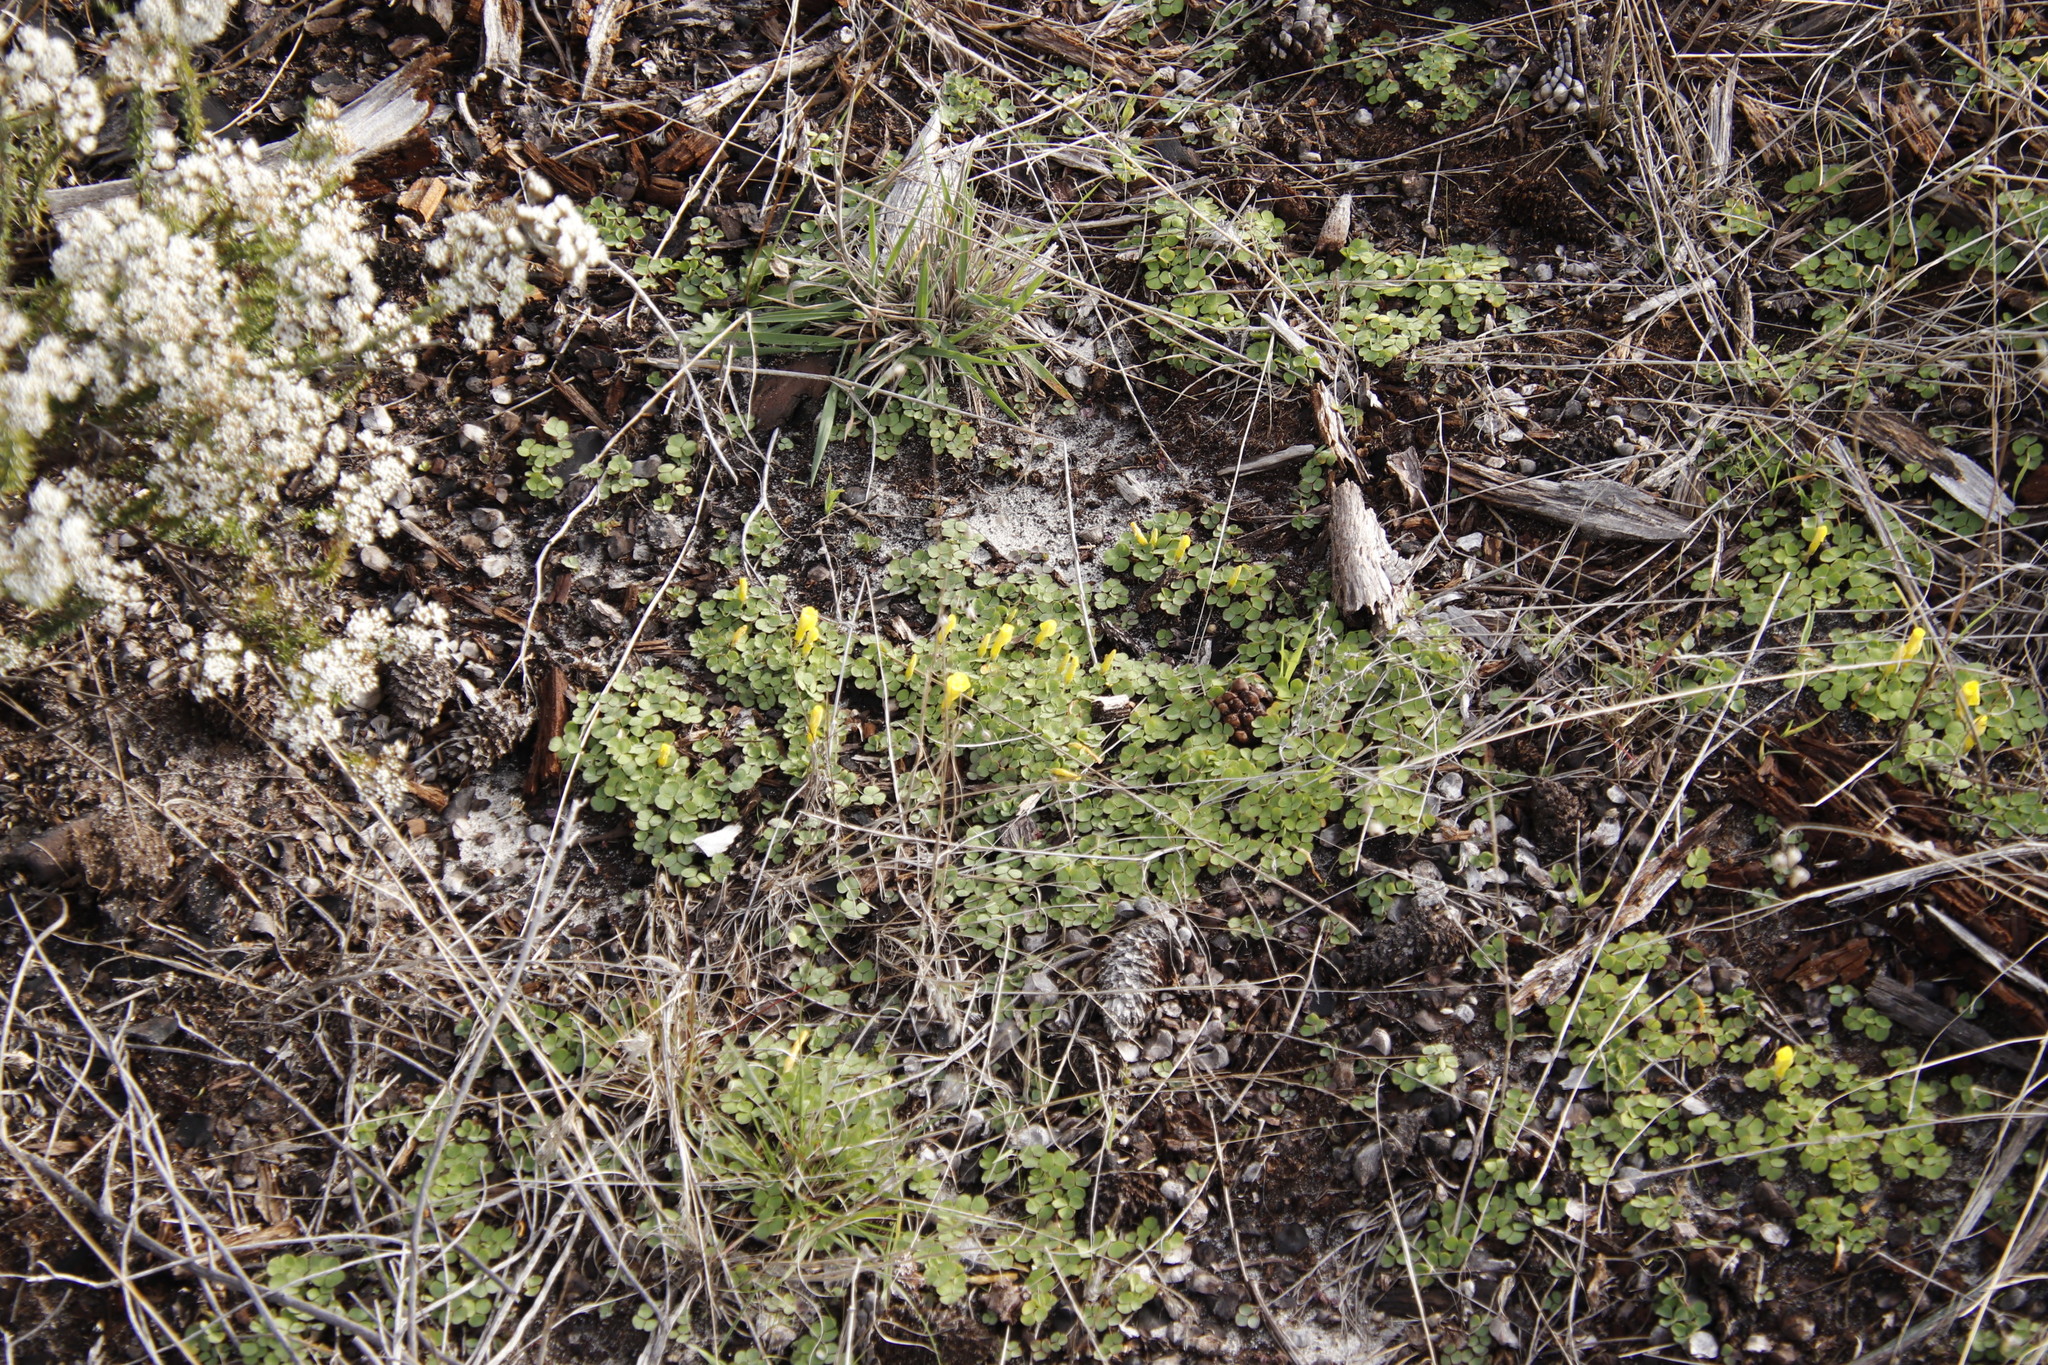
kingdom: Plantae
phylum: Tracheophyta
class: Magnoliopsida
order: Oxalidales
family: Oxalidaceae
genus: Oxalis
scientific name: Oxalis luteola
